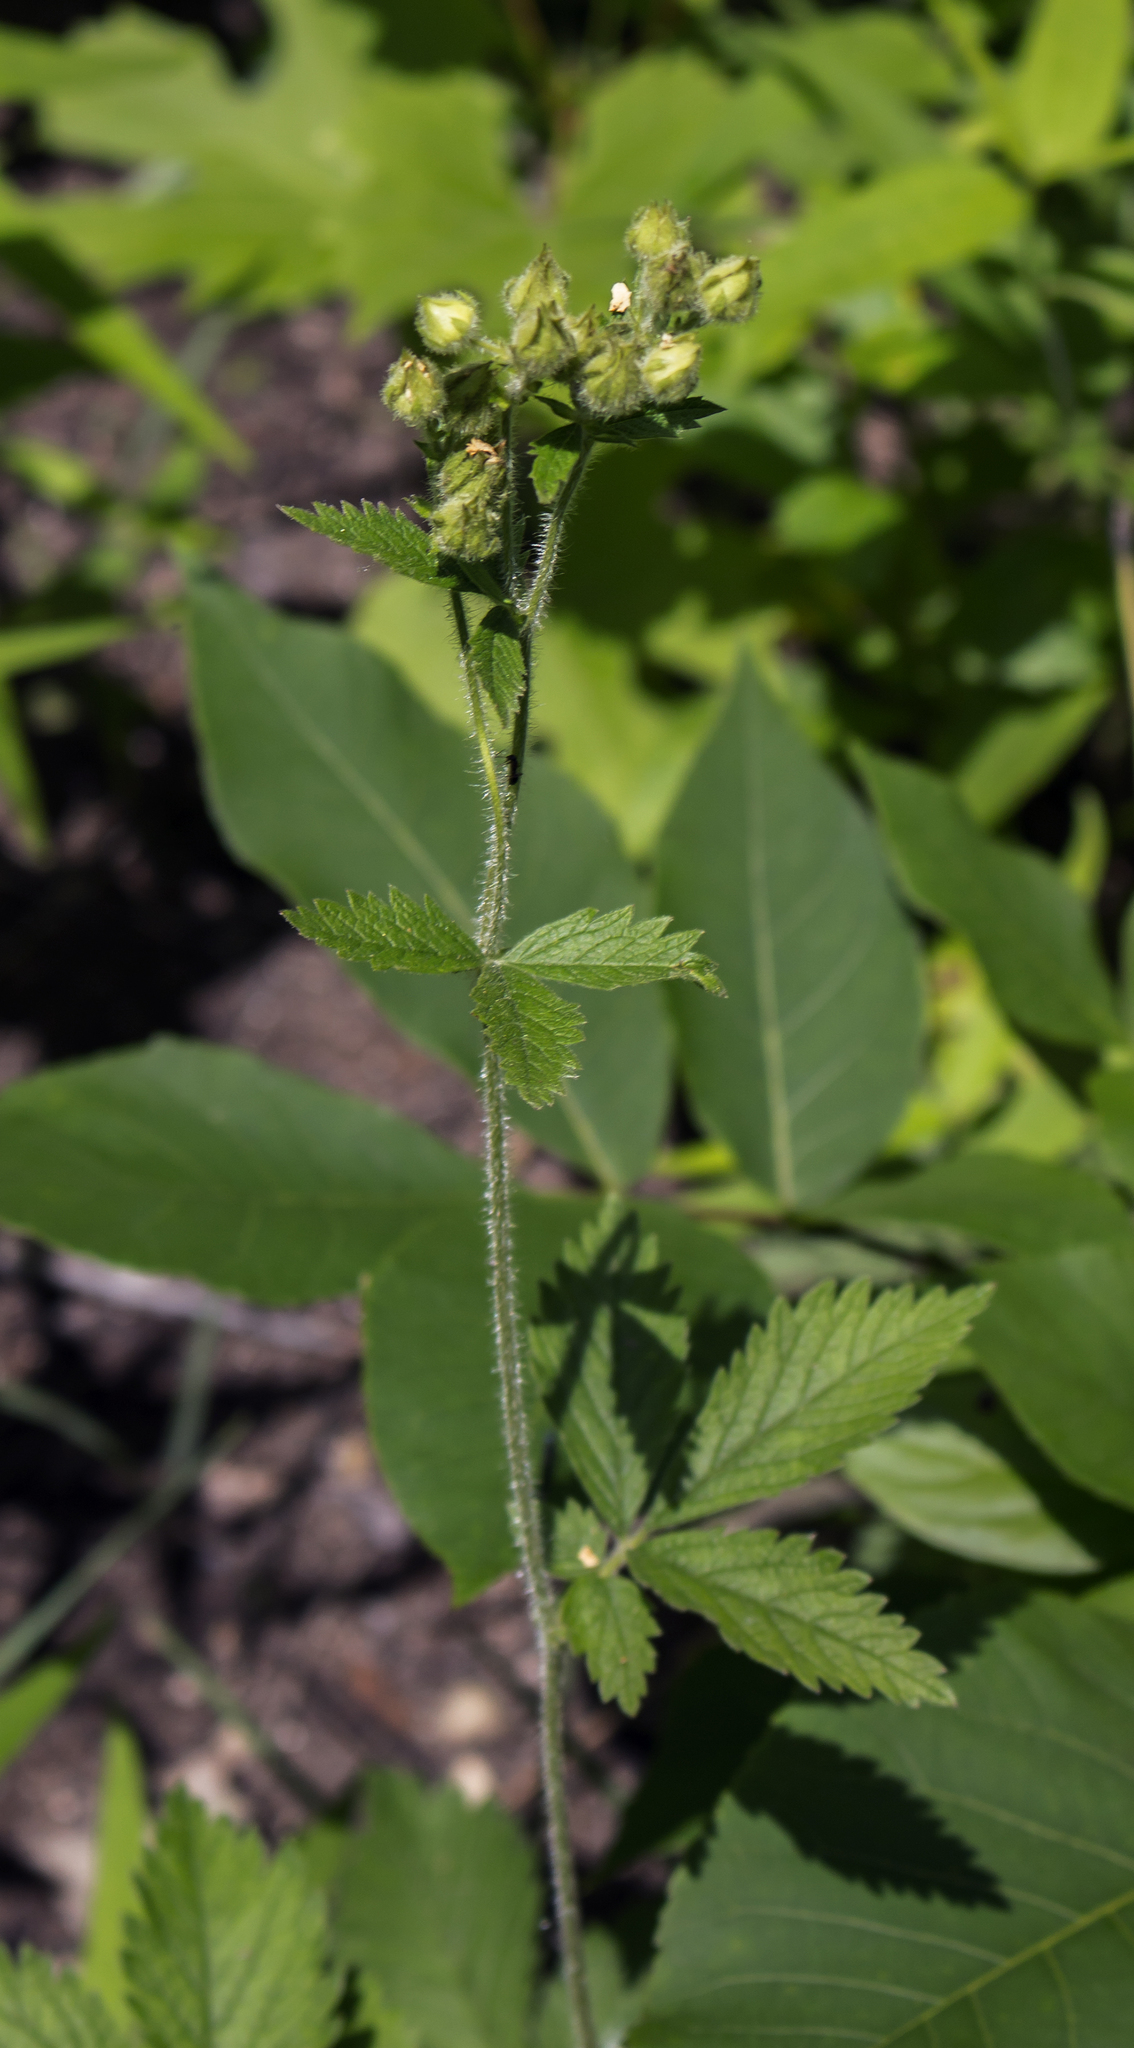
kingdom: Plantae
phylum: Tracheophyta
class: Magnoliopsida
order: Rosales
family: Rosaceae
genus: Drymocallis
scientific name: Drymocallis arguta
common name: Tall cinquefoil
